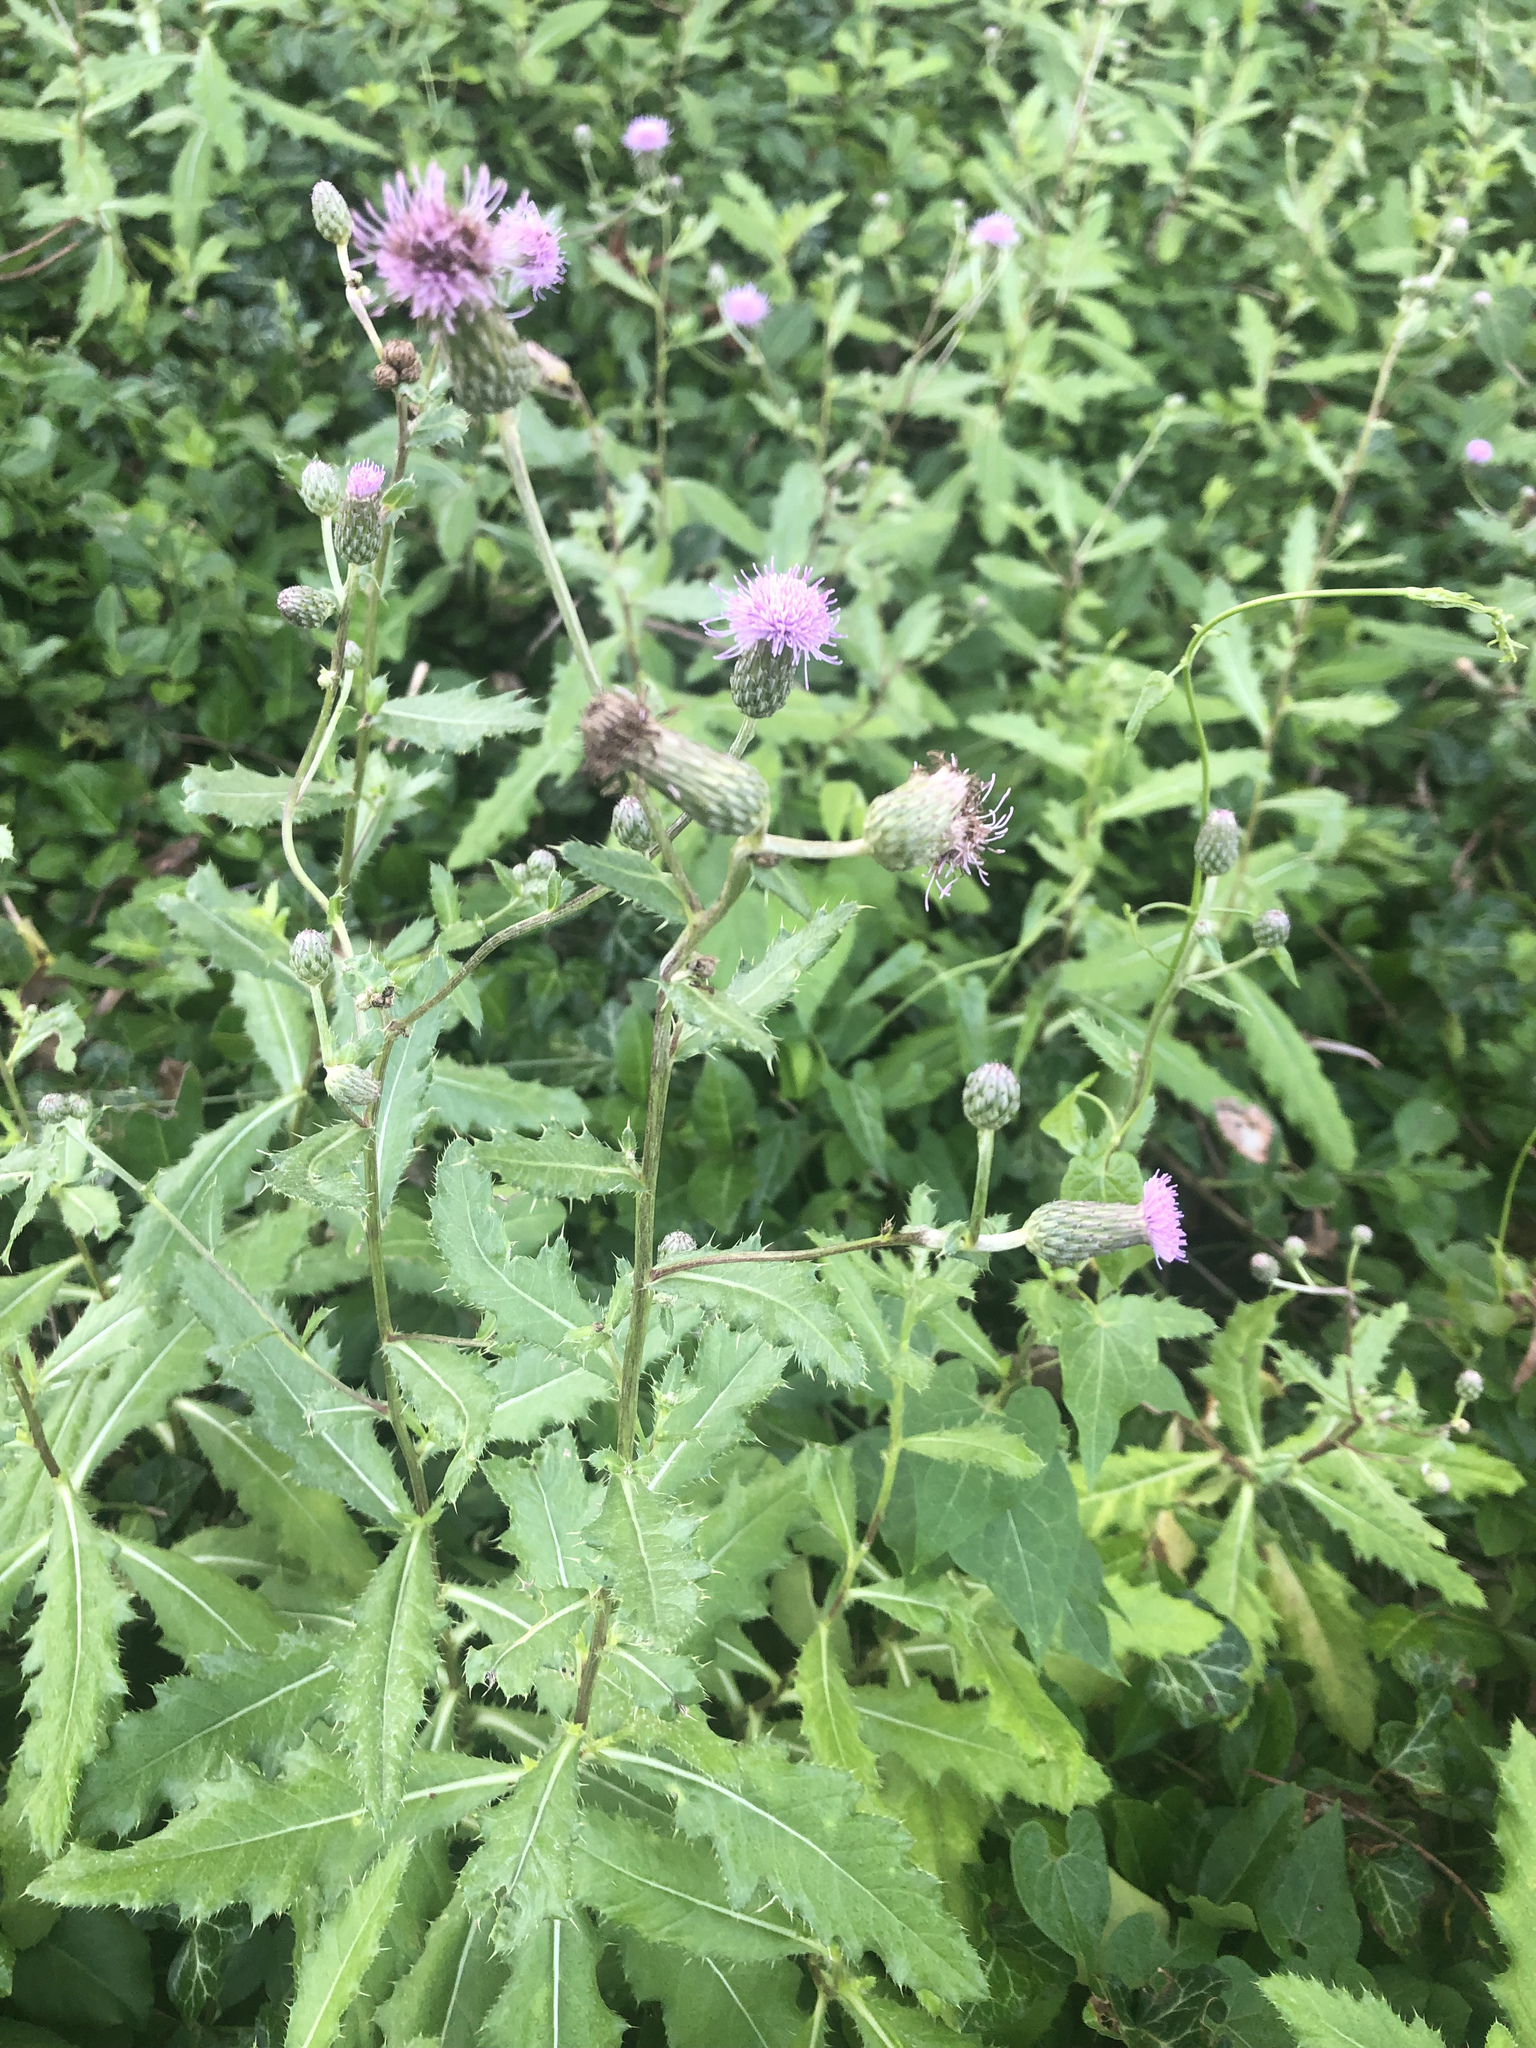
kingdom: Plantae
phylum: Tracheophyta
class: Magnoliopsida
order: Asterales
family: Asteraceae
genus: Cirsium
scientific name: Cirsium arvense
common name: Creeping thistle
